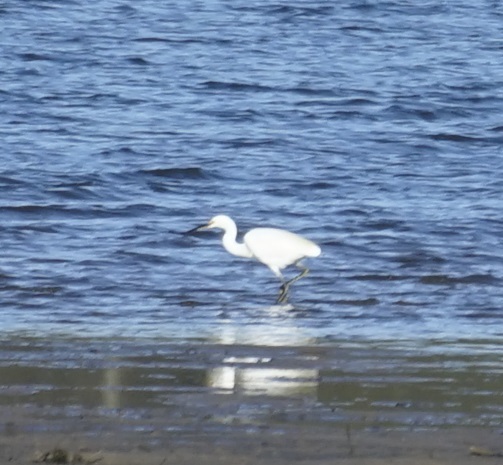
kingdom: Animalia
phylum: Chordata
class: Aves
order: Pelecaniformes
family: Ardeidae
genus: Egretta
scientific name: Egretta garzetta
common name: Little egret
